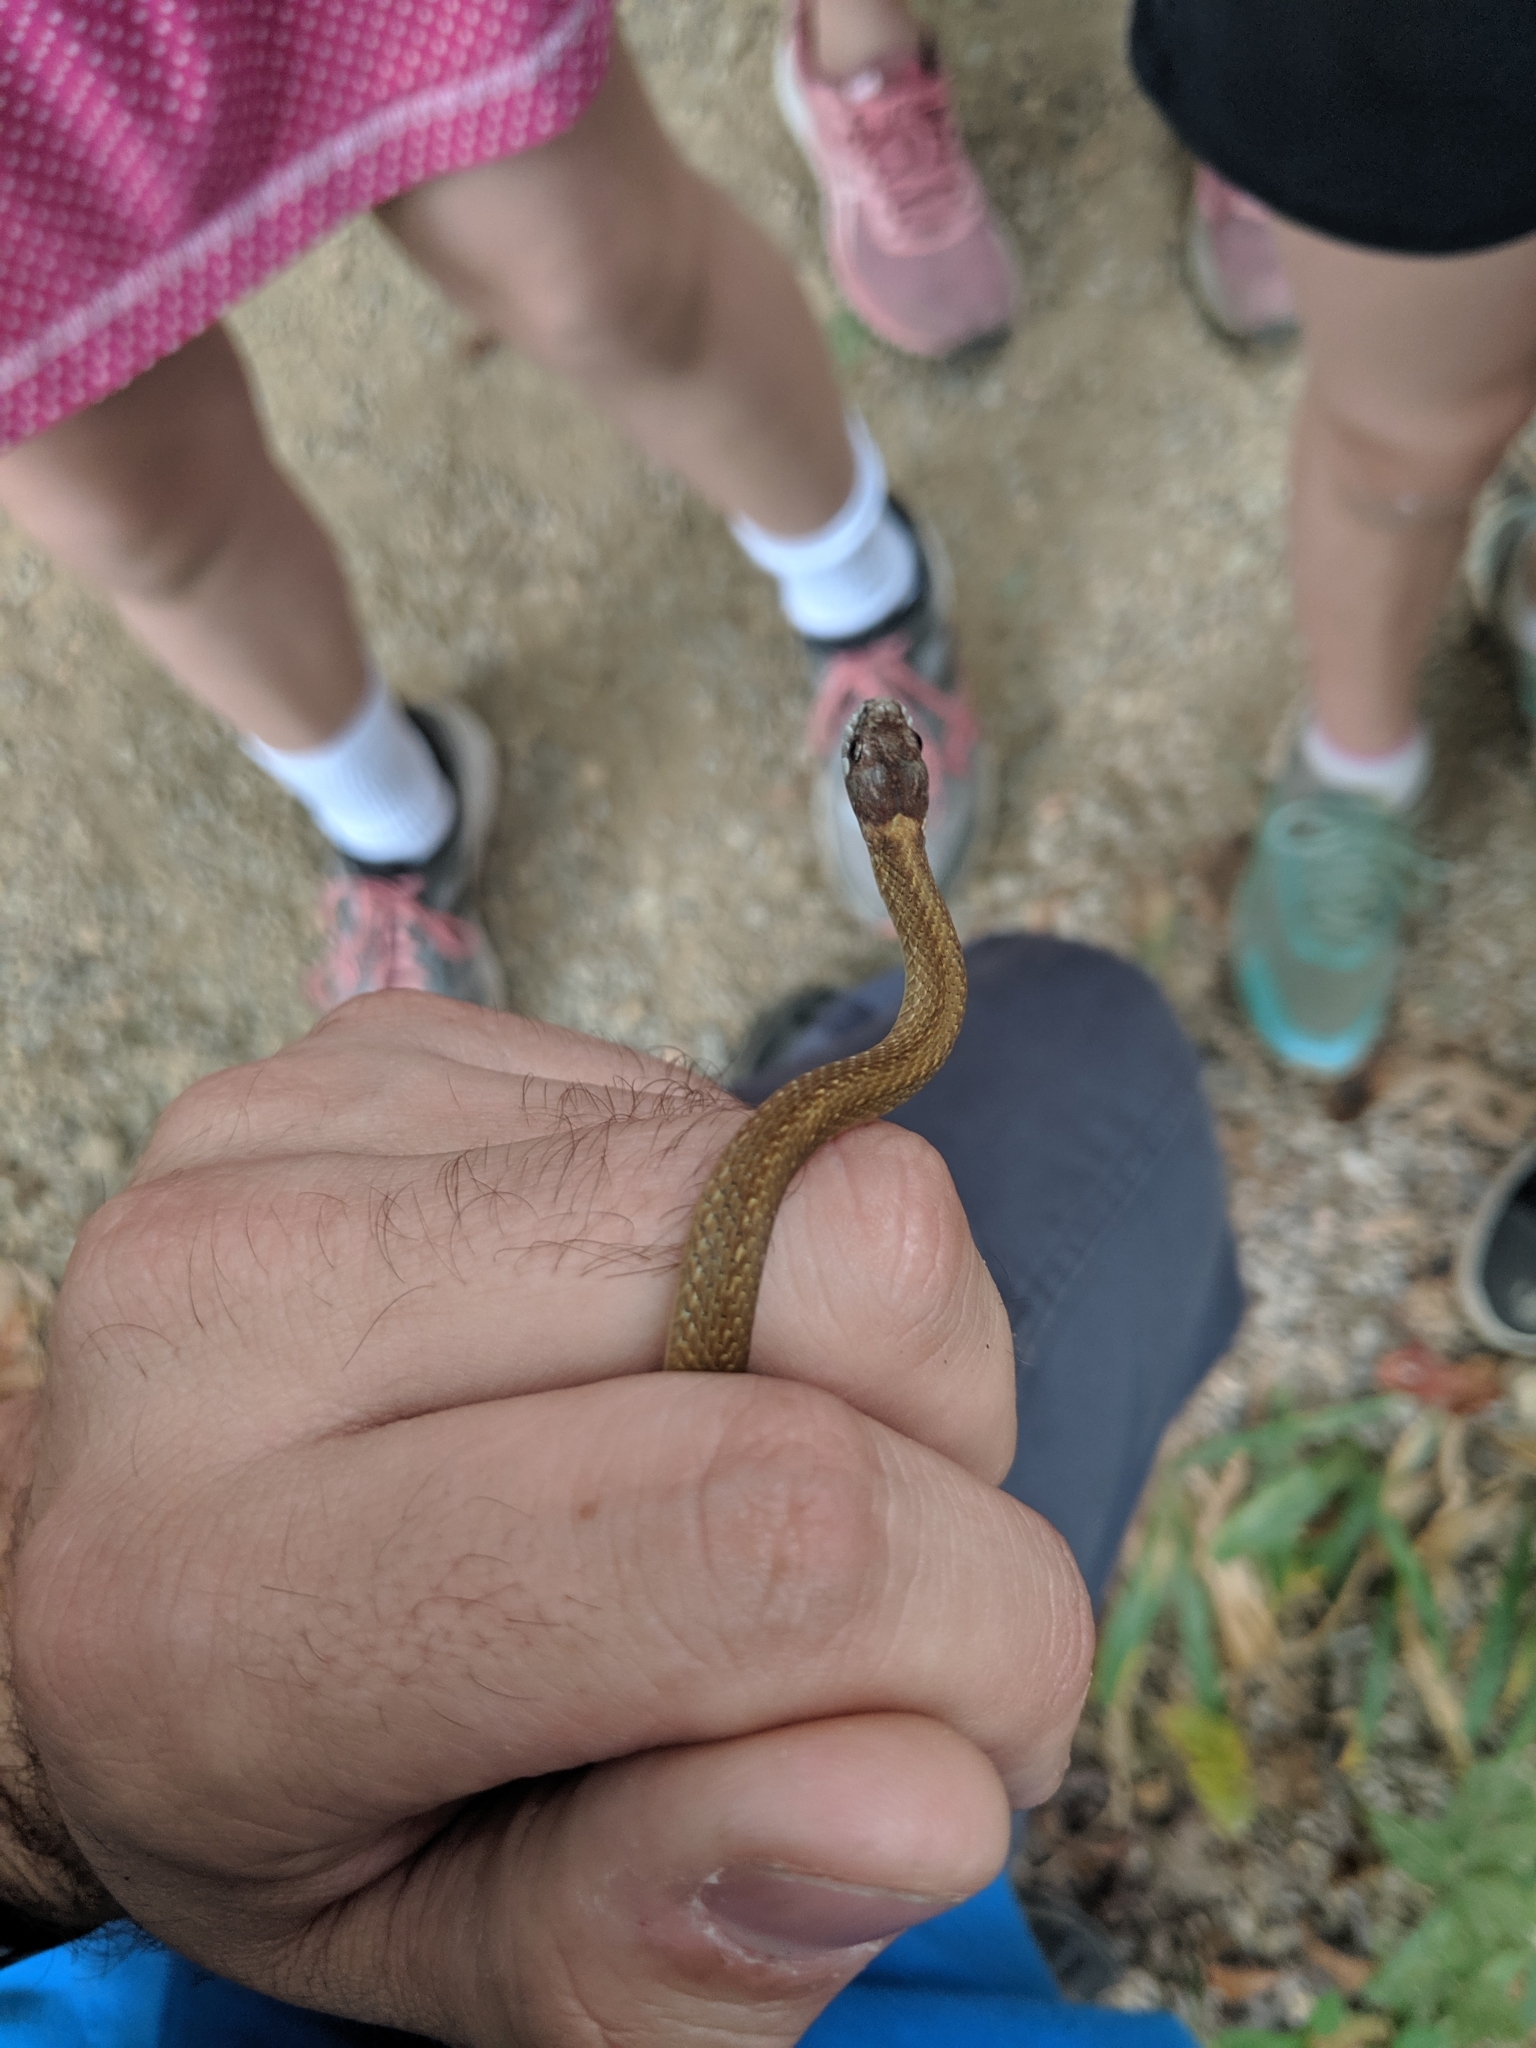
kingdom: Animalia
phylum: Chordata
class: Squamata
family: Colubridae
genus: Storeria
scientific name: Storeria occipitomaculata
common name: Redbelly snake
